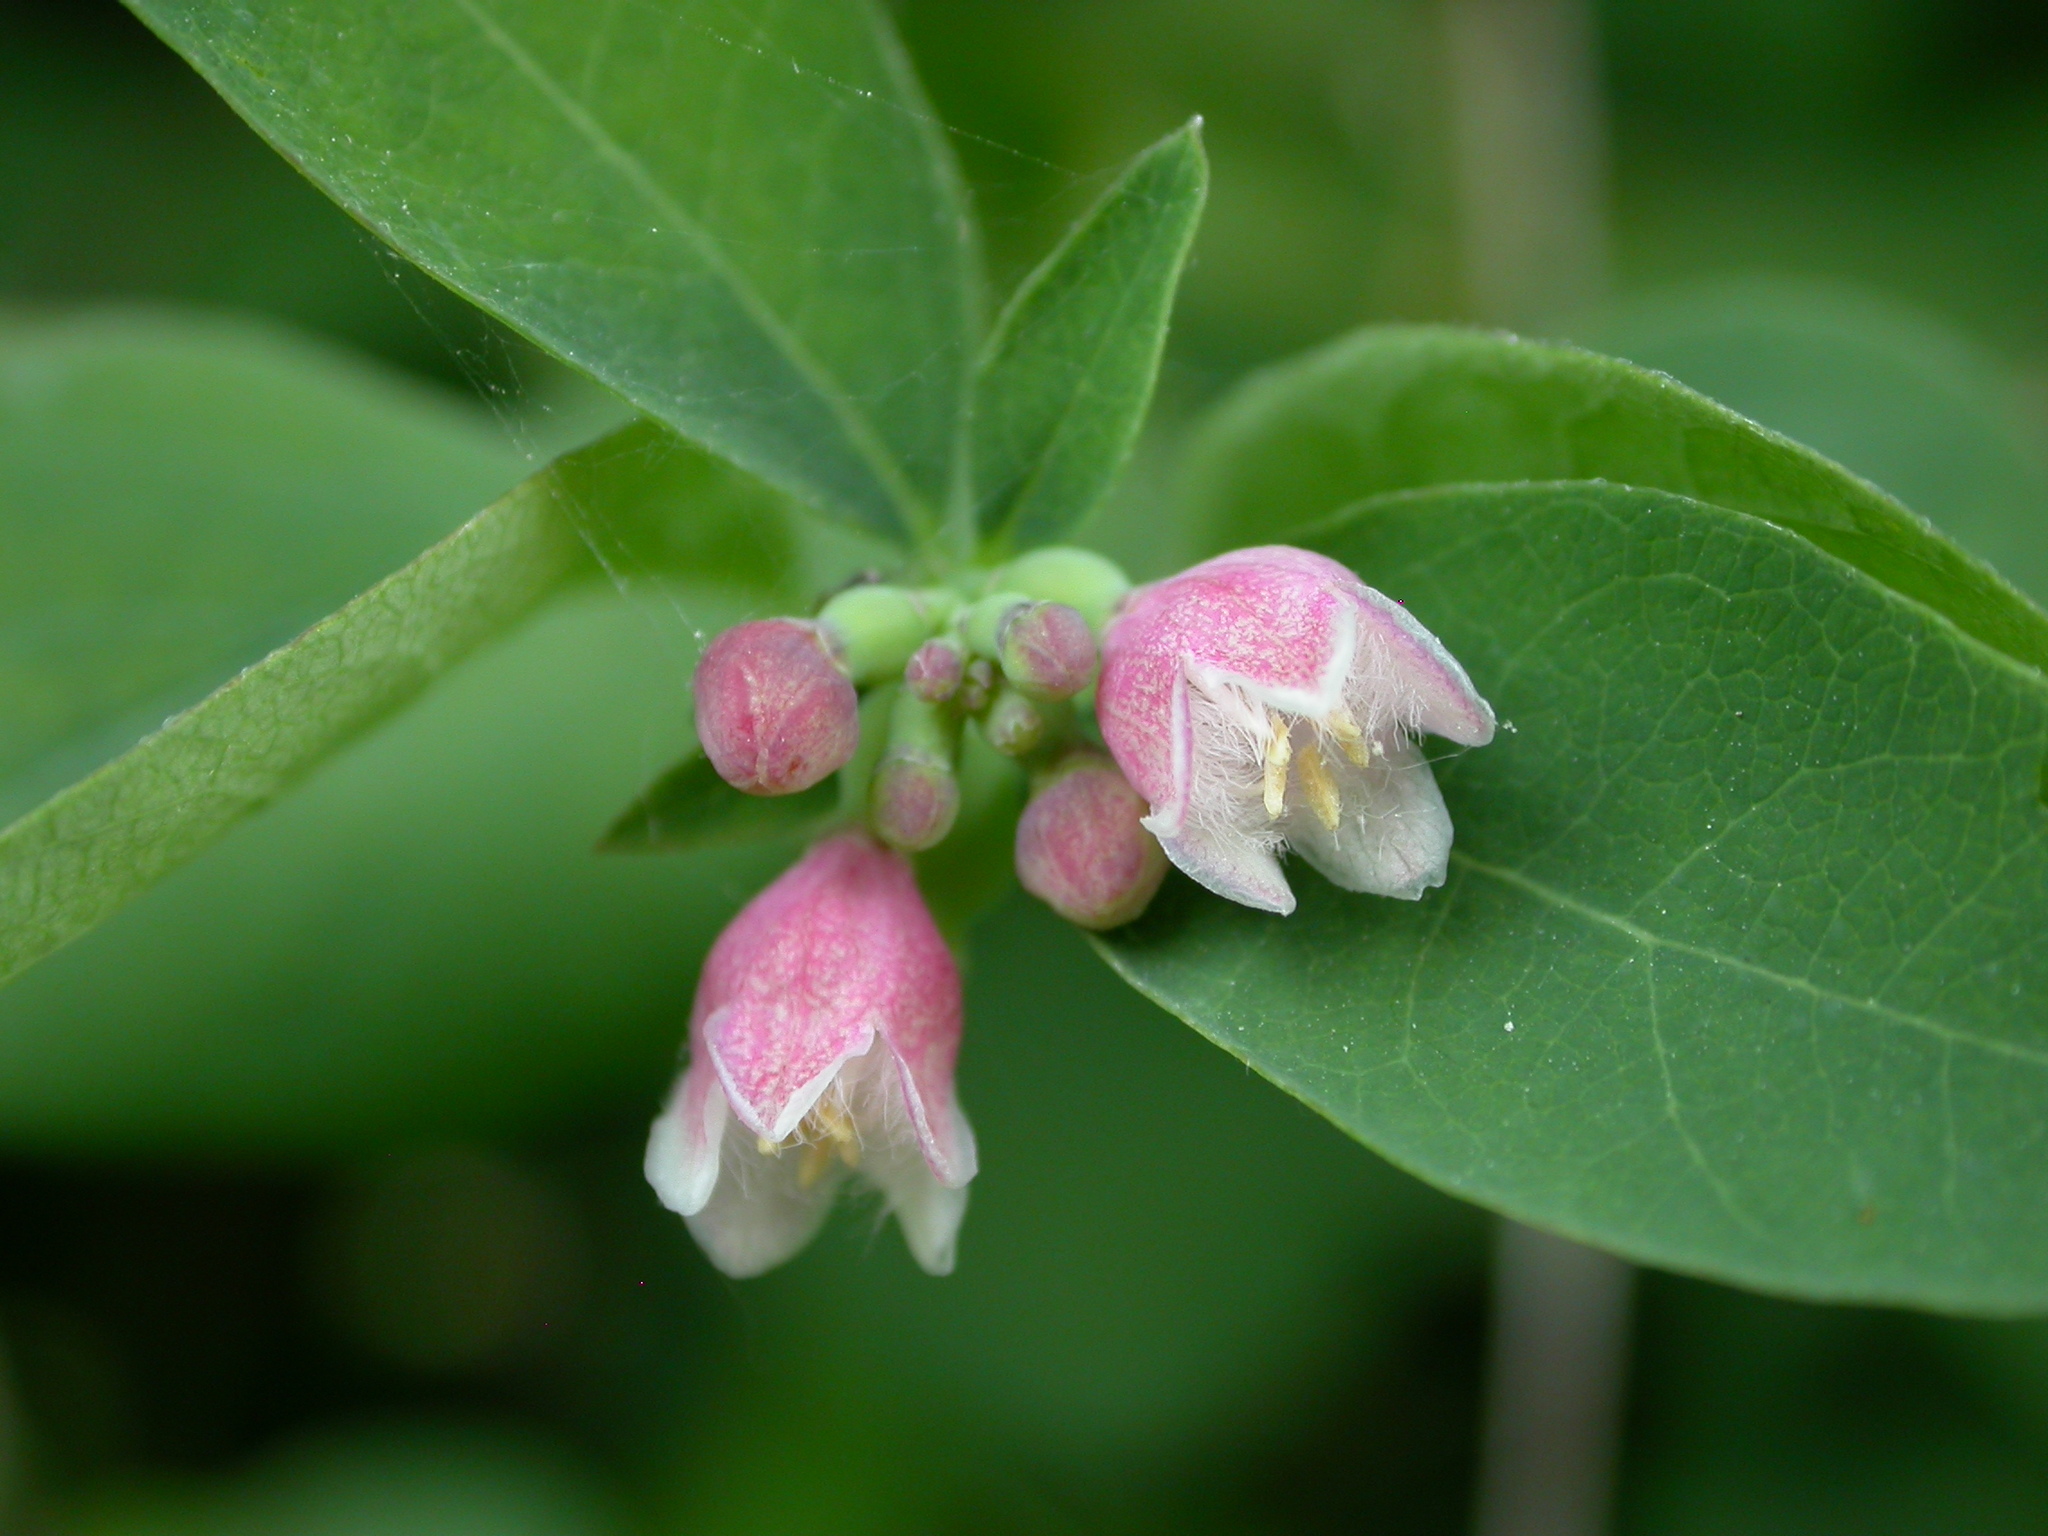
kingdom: Plantae
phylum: Tracheophyta
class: Magnoliopsida
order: Dipsacales
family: Caprifoliaceae
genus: Symphoricarpos
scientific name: Symphoricarpos albus
